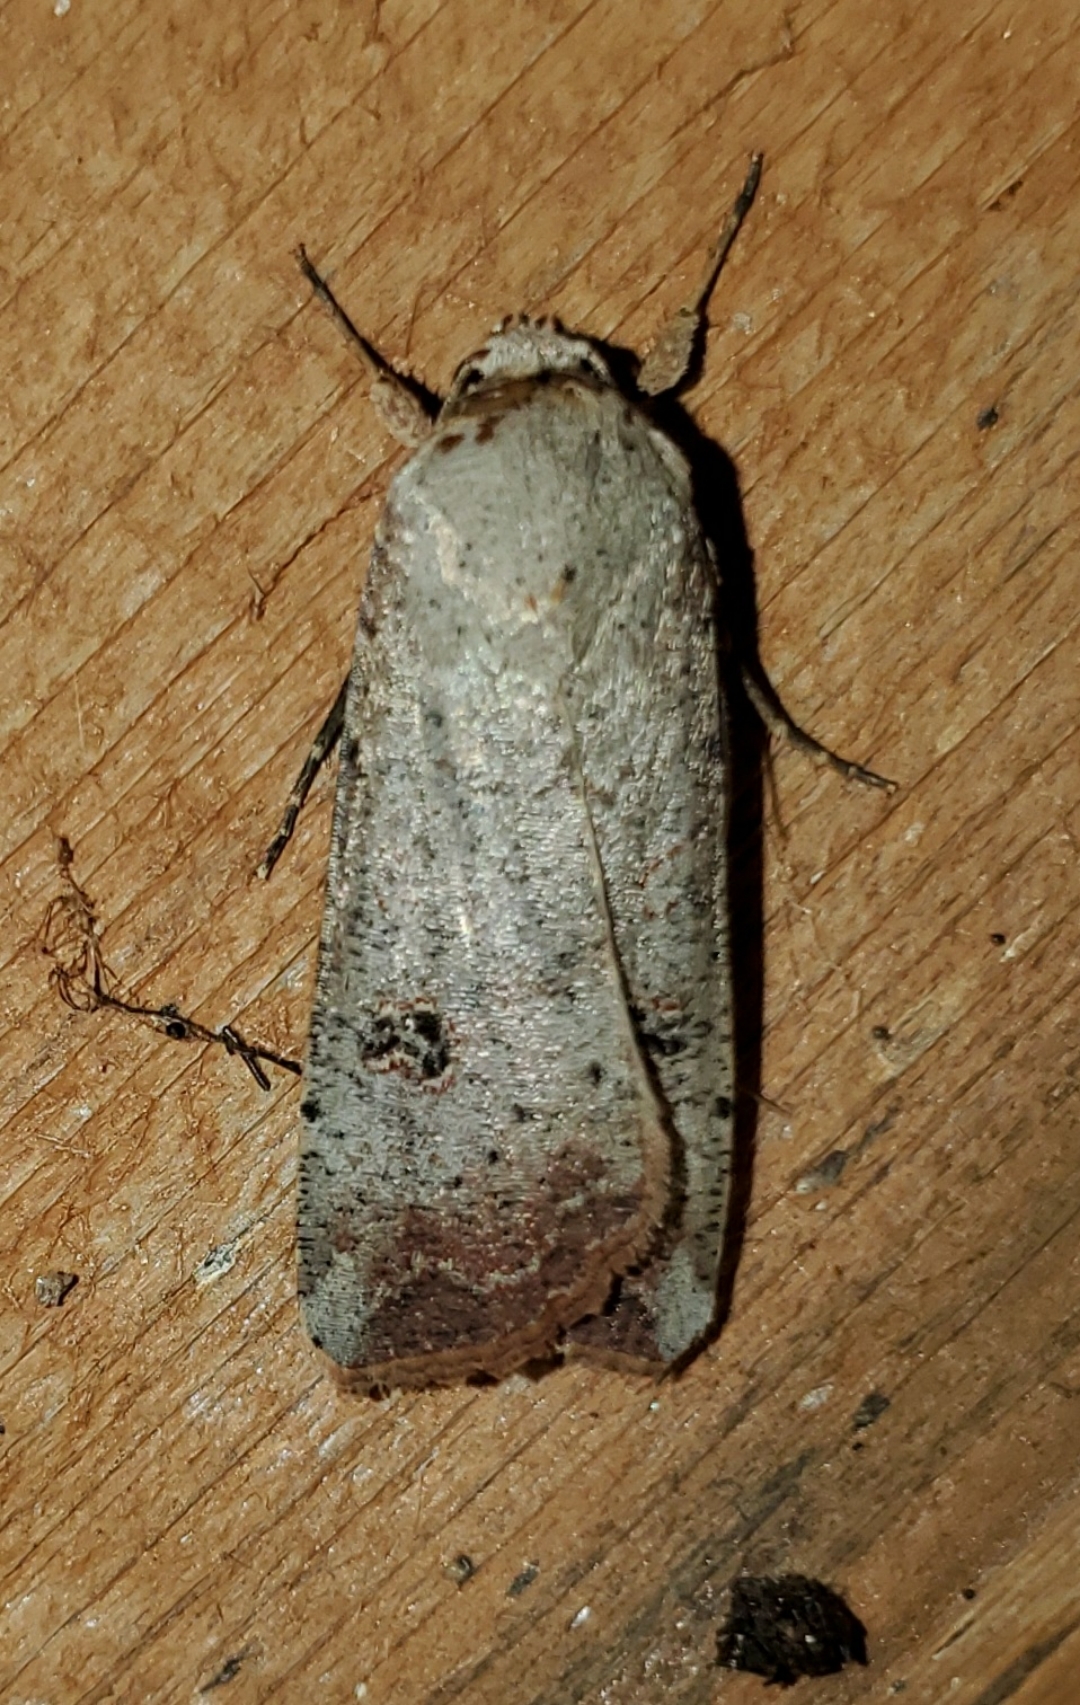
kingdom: Animalia
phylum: Arthropoda
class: Insecta
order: Lepidoptera
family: Noctuidae
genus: Anicla
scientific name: Anicla infecta
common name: Green cutworm
